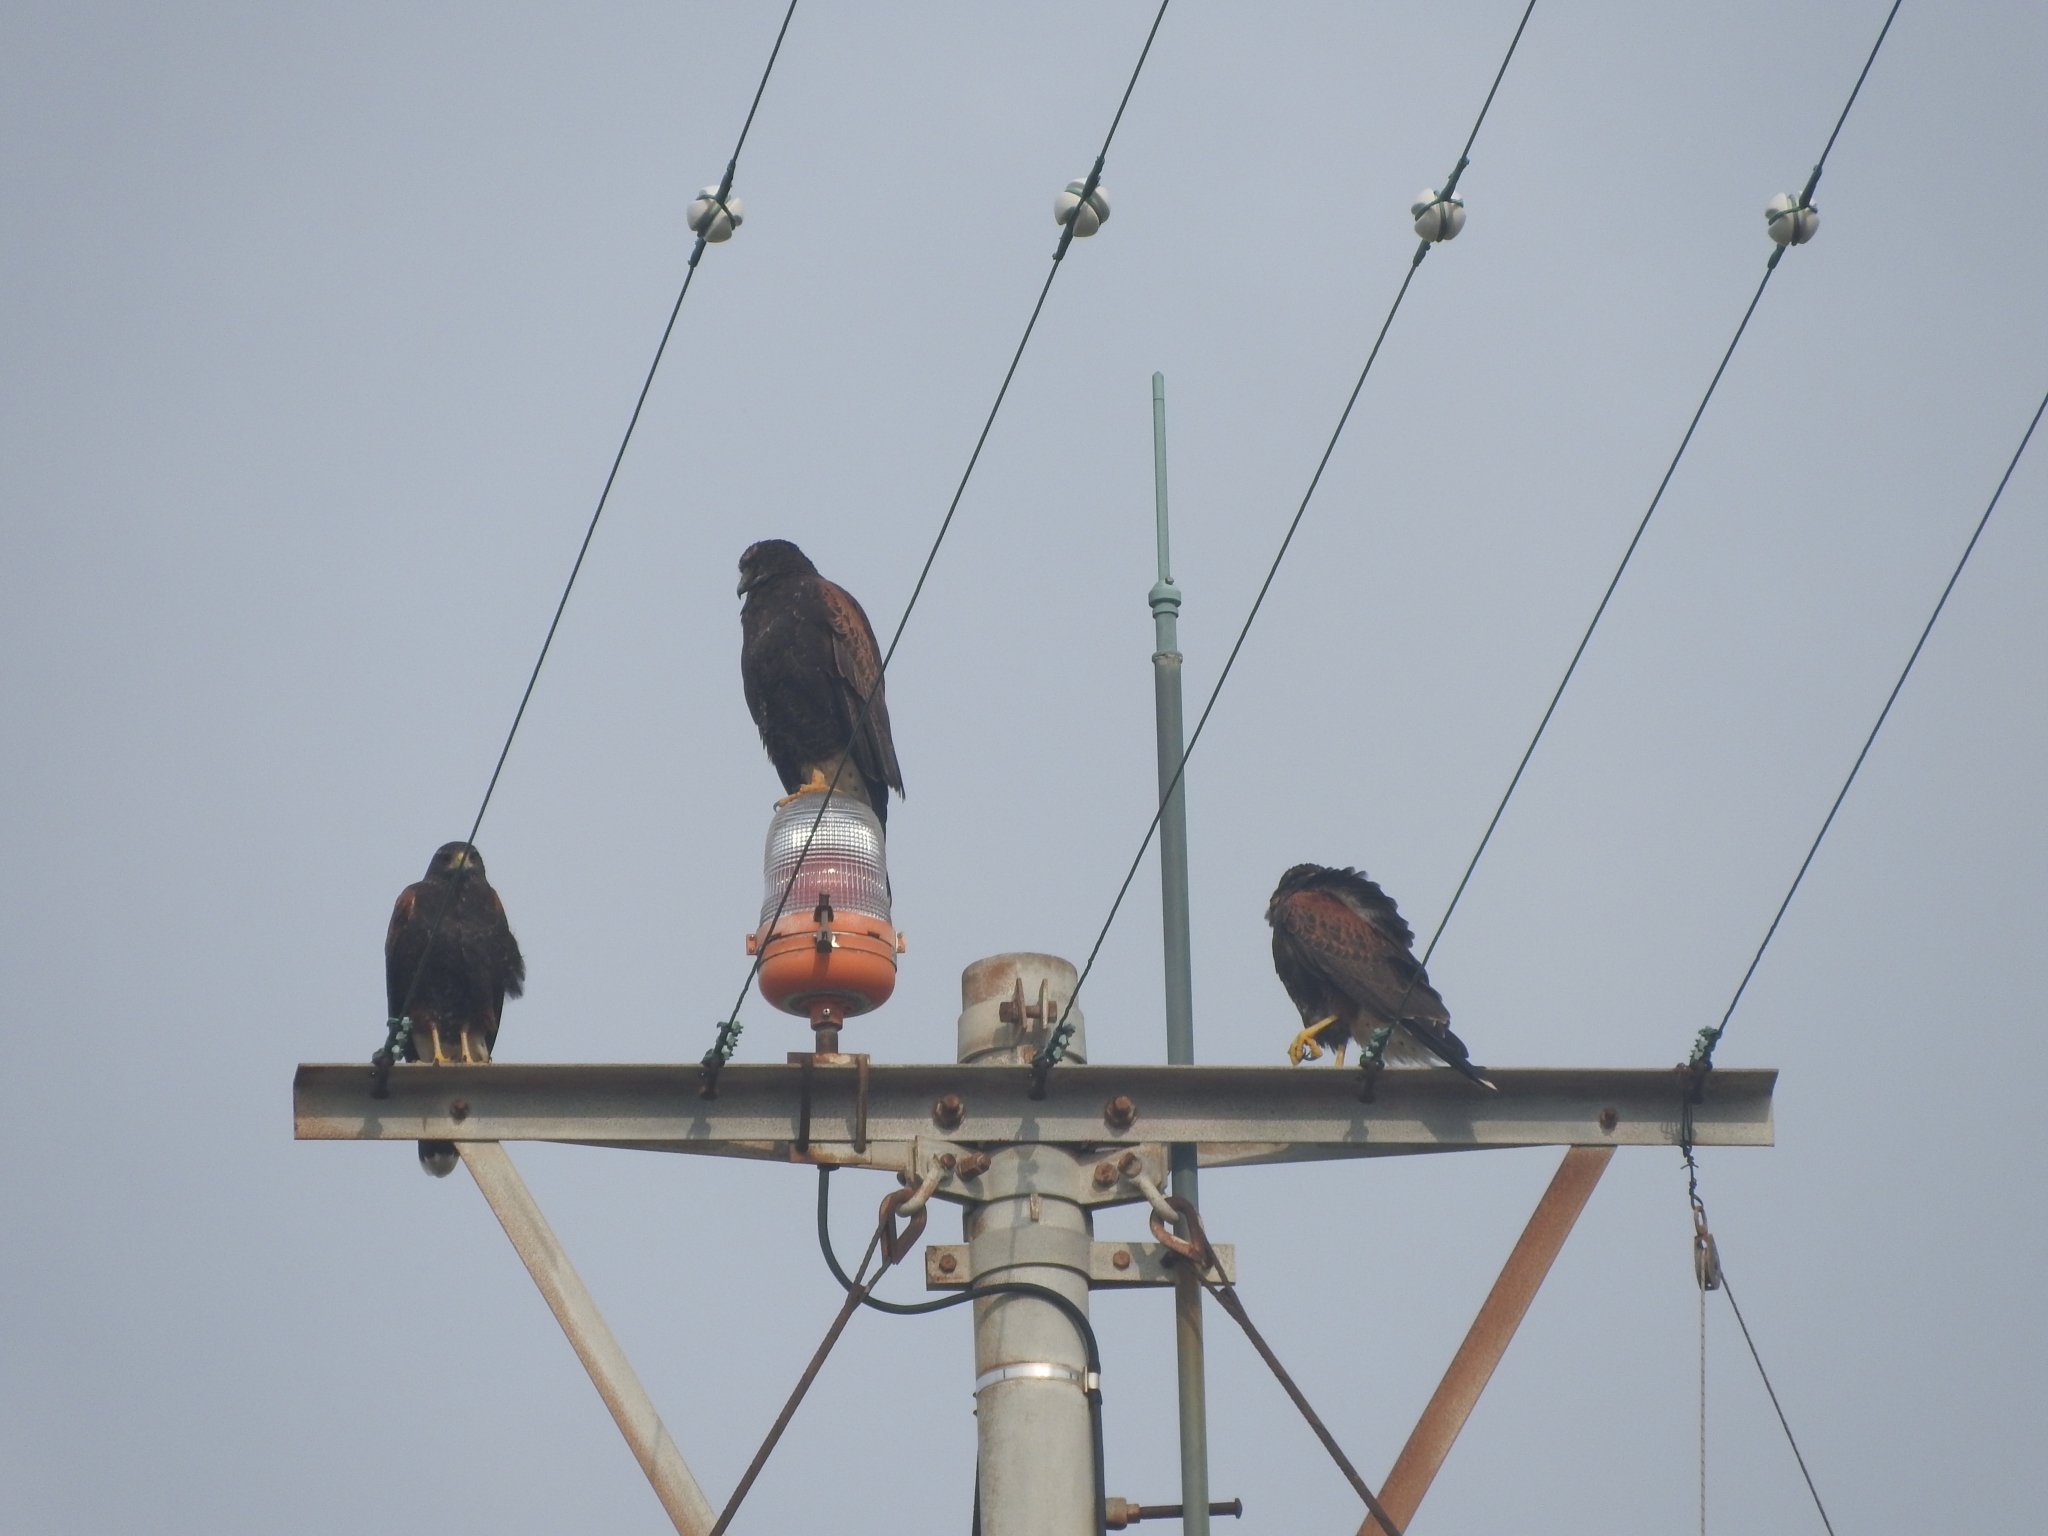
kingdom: Animalia
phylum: Chordata
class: Aves
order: Accipitriformes
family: Accipitridae
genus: Parabuteo
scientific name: Parabuteo unicinctus
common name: Harris's hawk
